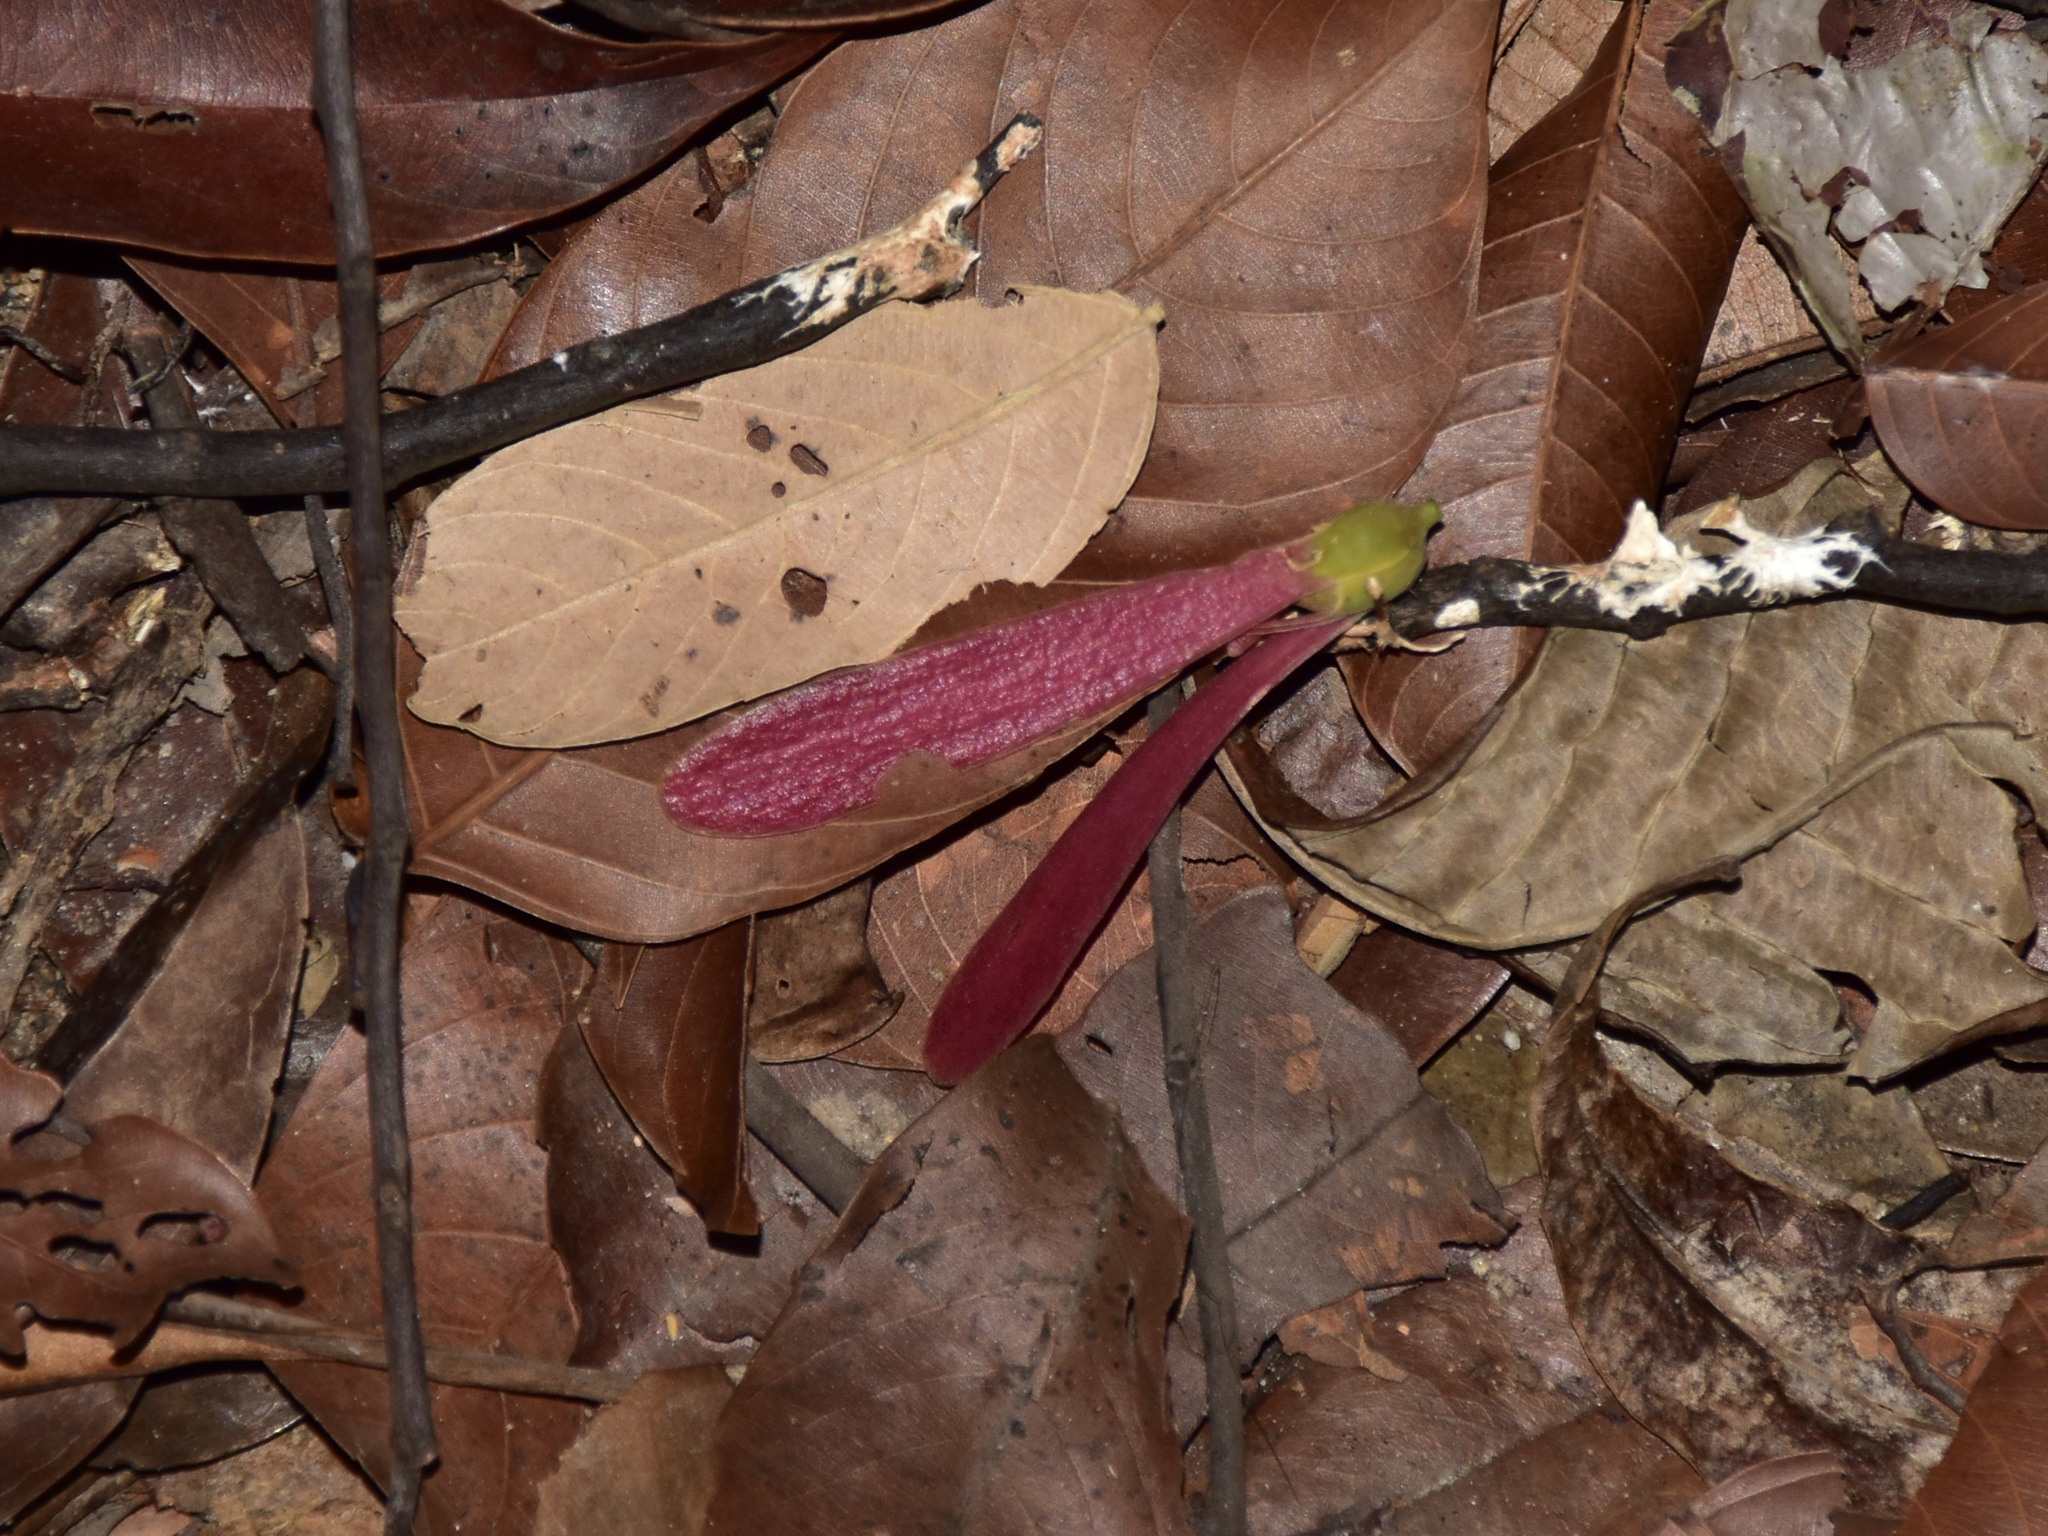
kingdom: Plantae
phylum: Tracheophyta
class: Magnoliopsida
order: Malvales
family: Dipterocarpaceae
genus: Shorea
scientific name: Shorea curtisii
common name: Dark red meranti
